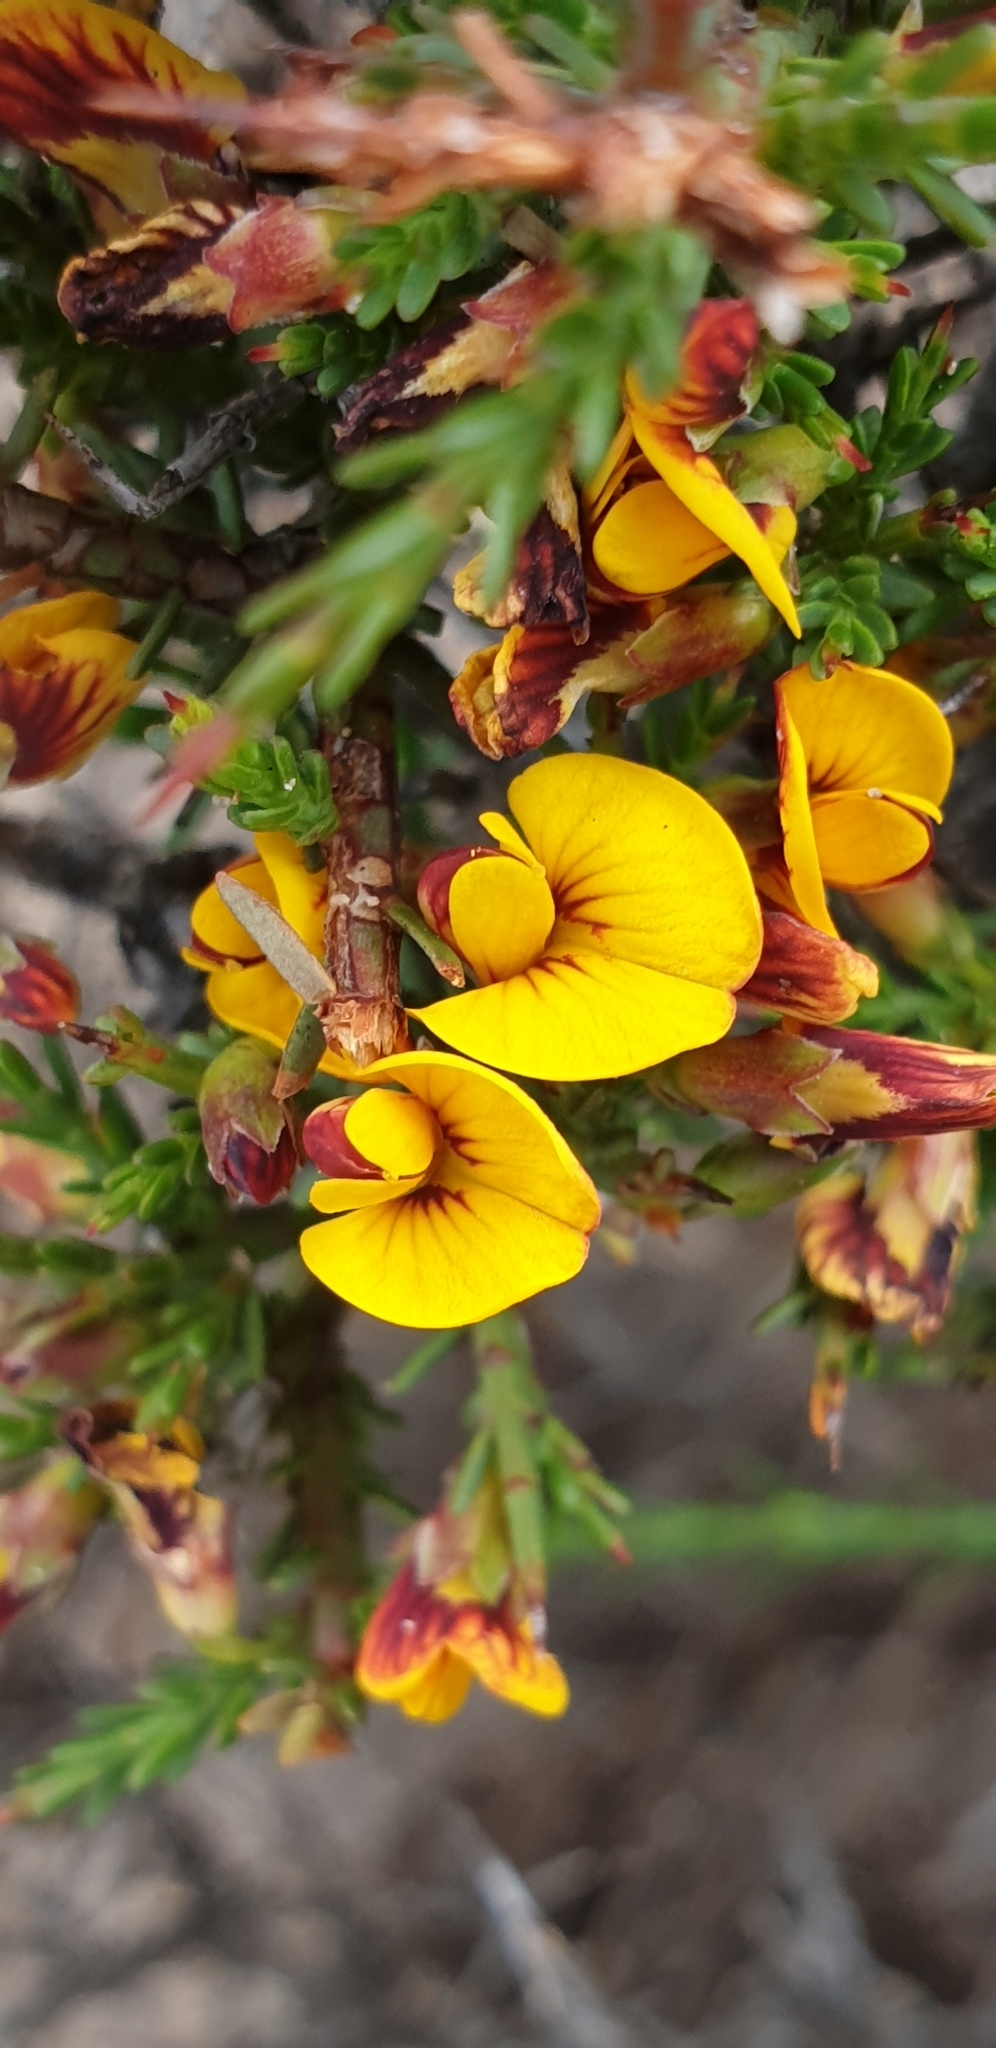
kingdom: Plantae
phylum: Tracheophyta
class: Magnoliopsida
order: Fabales
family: Fabaceae
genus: Eutaxia
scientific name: Eutaxia microphylla
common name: Mallee bush-pea
